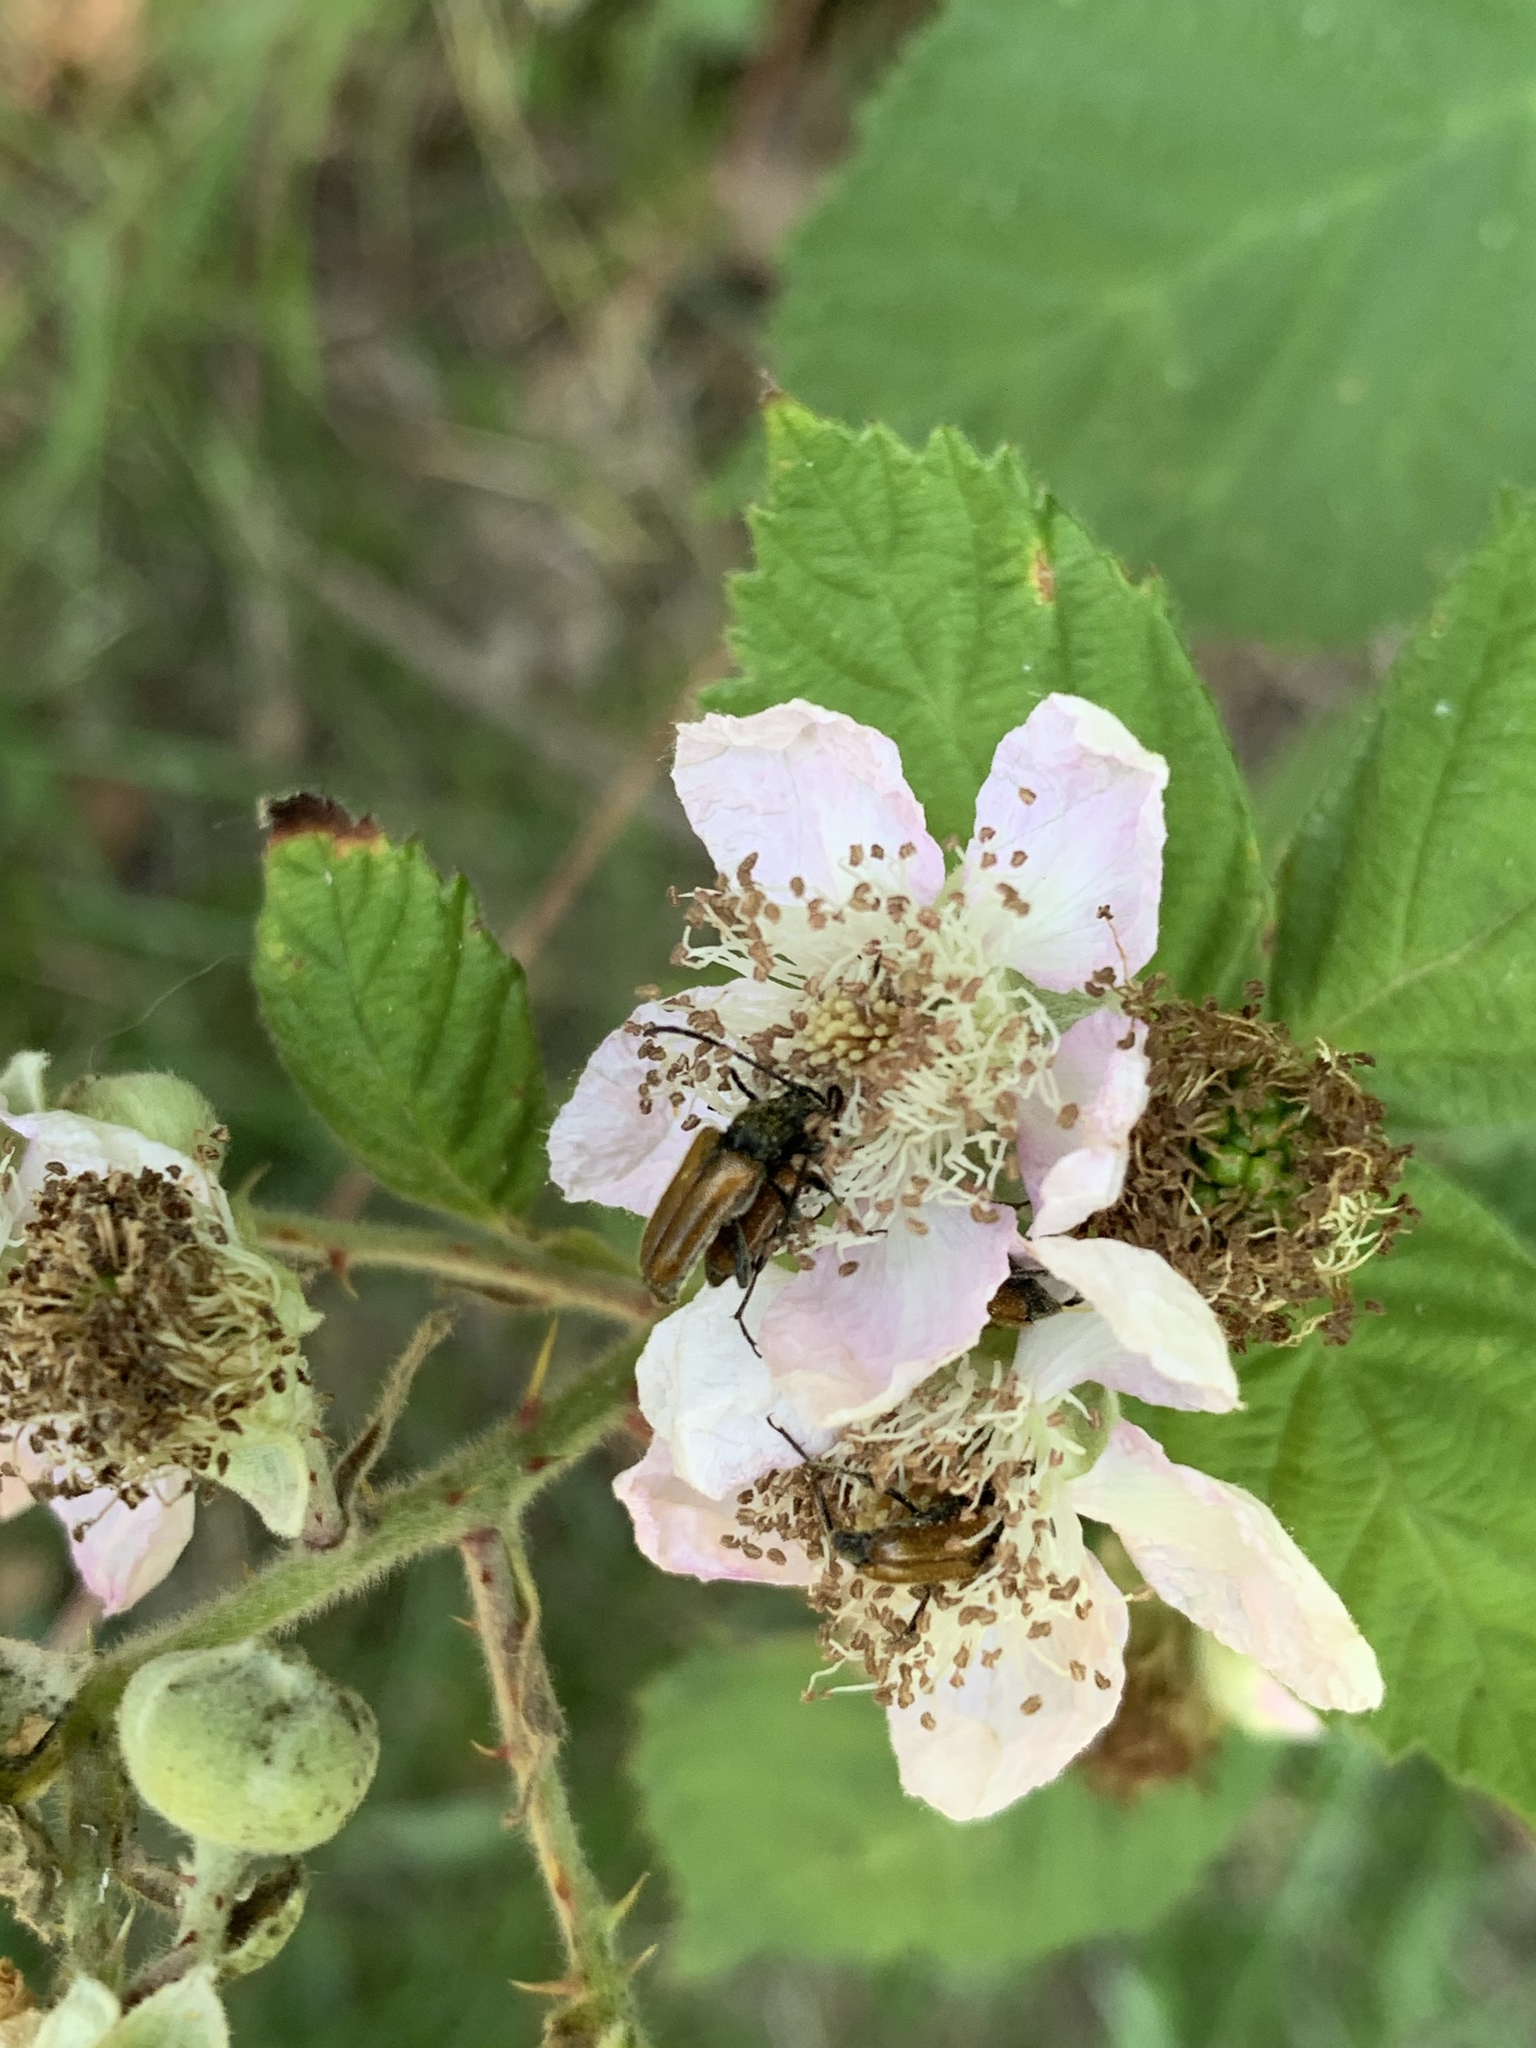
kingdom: Animalia
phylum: Arthropoda
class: Insecta
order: Coleoptera
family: Cerambycidae
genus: Pseudovadonia
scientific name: Pseudovadonia livida
